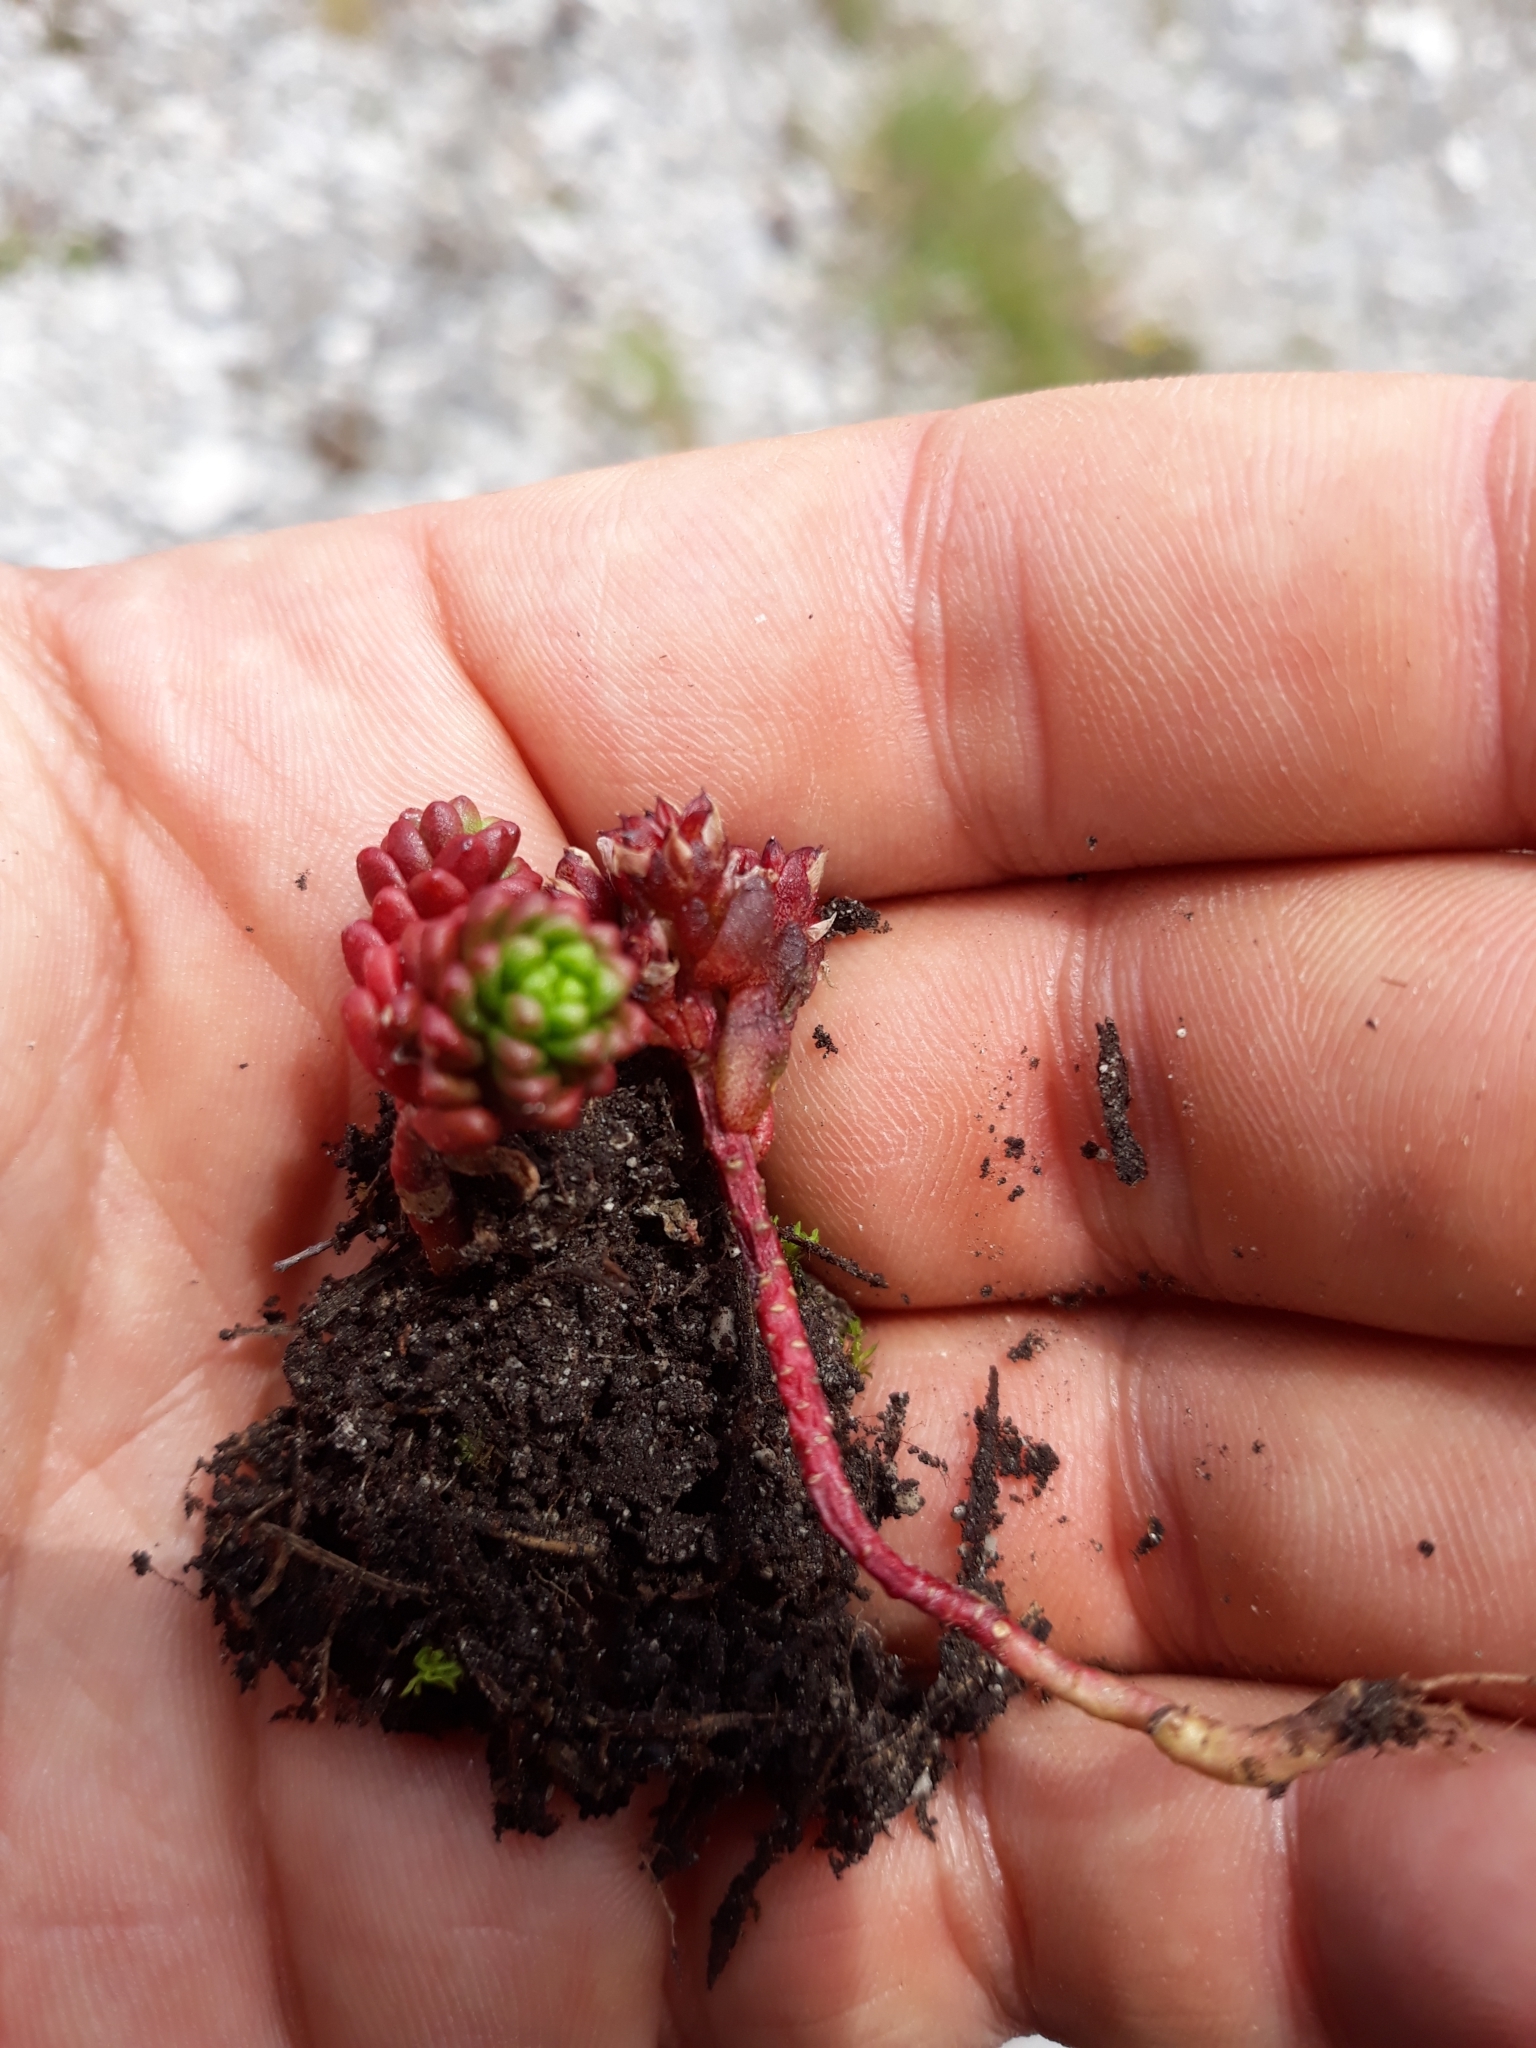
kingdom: Plantae
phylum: Tracheophyta
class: Magnoliopsida
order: Saxifragales
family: Crassulaceae
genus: Sedum
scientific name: Sedum atratum
